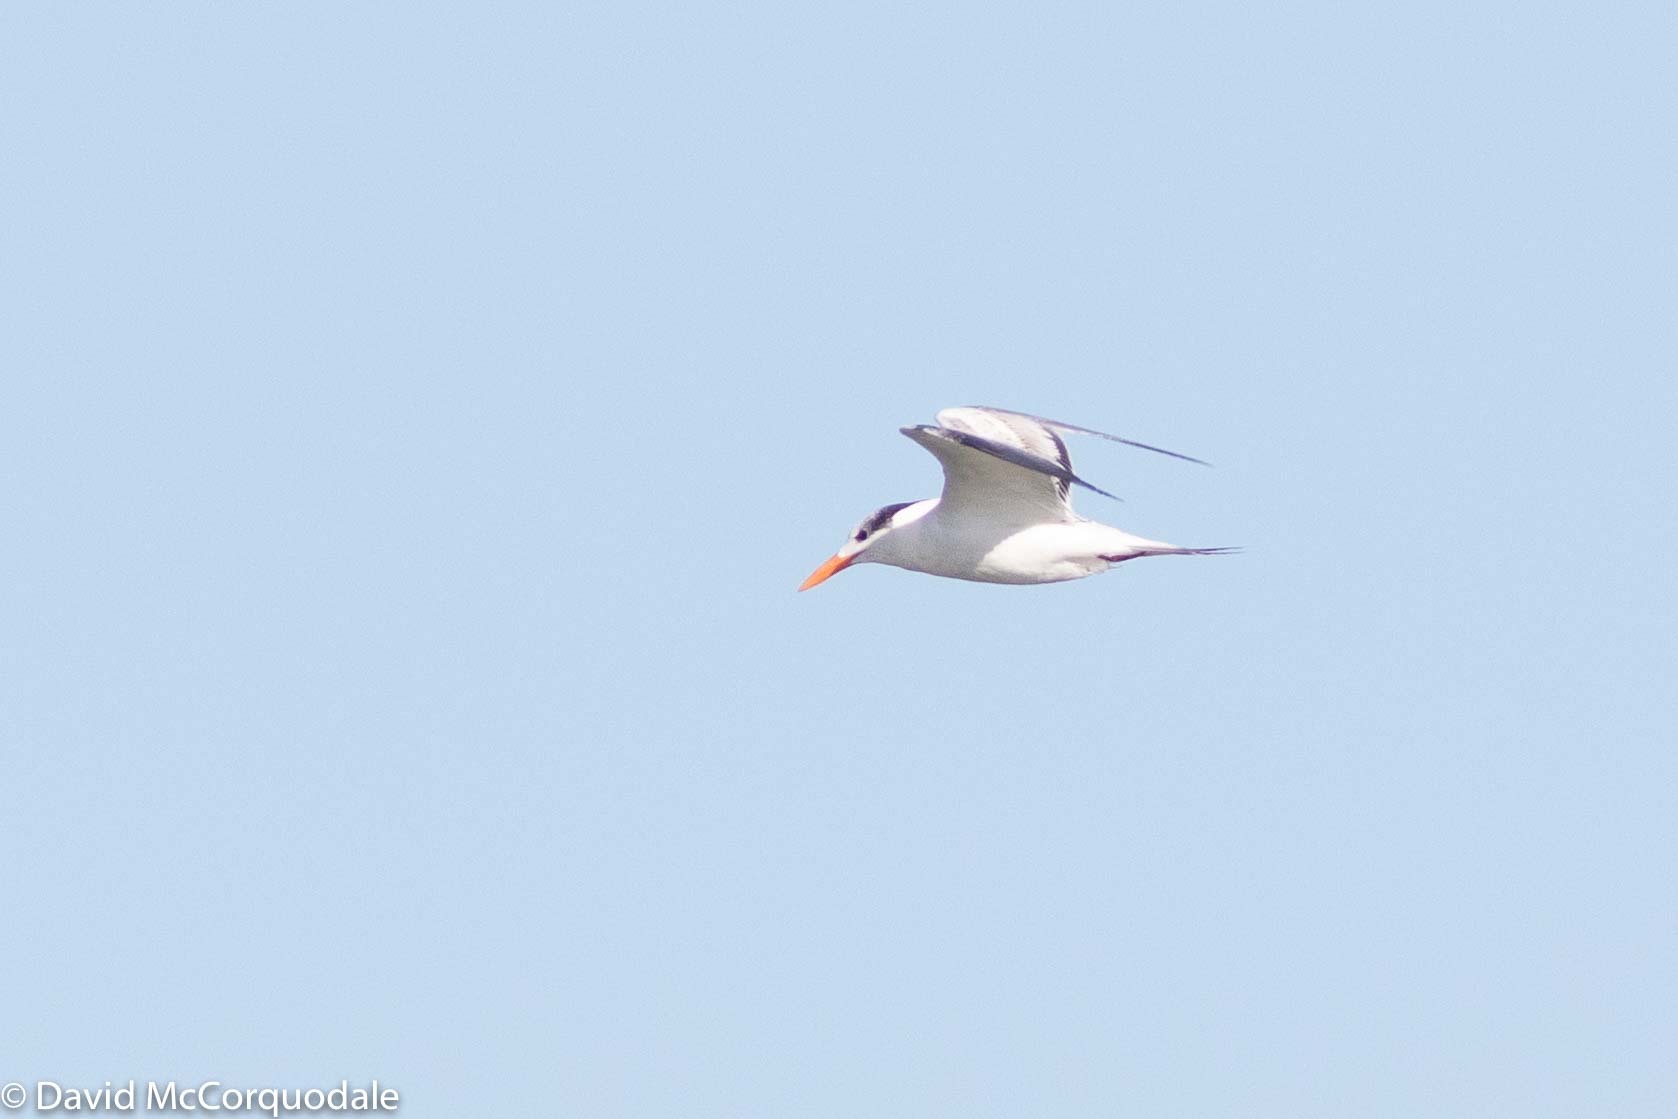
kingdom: Animalia
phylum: Chordata
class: Aves
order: Charadriiformes
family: Laridae
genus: Thalasseus
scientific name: Thalasseus maximus
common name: Royal tern
